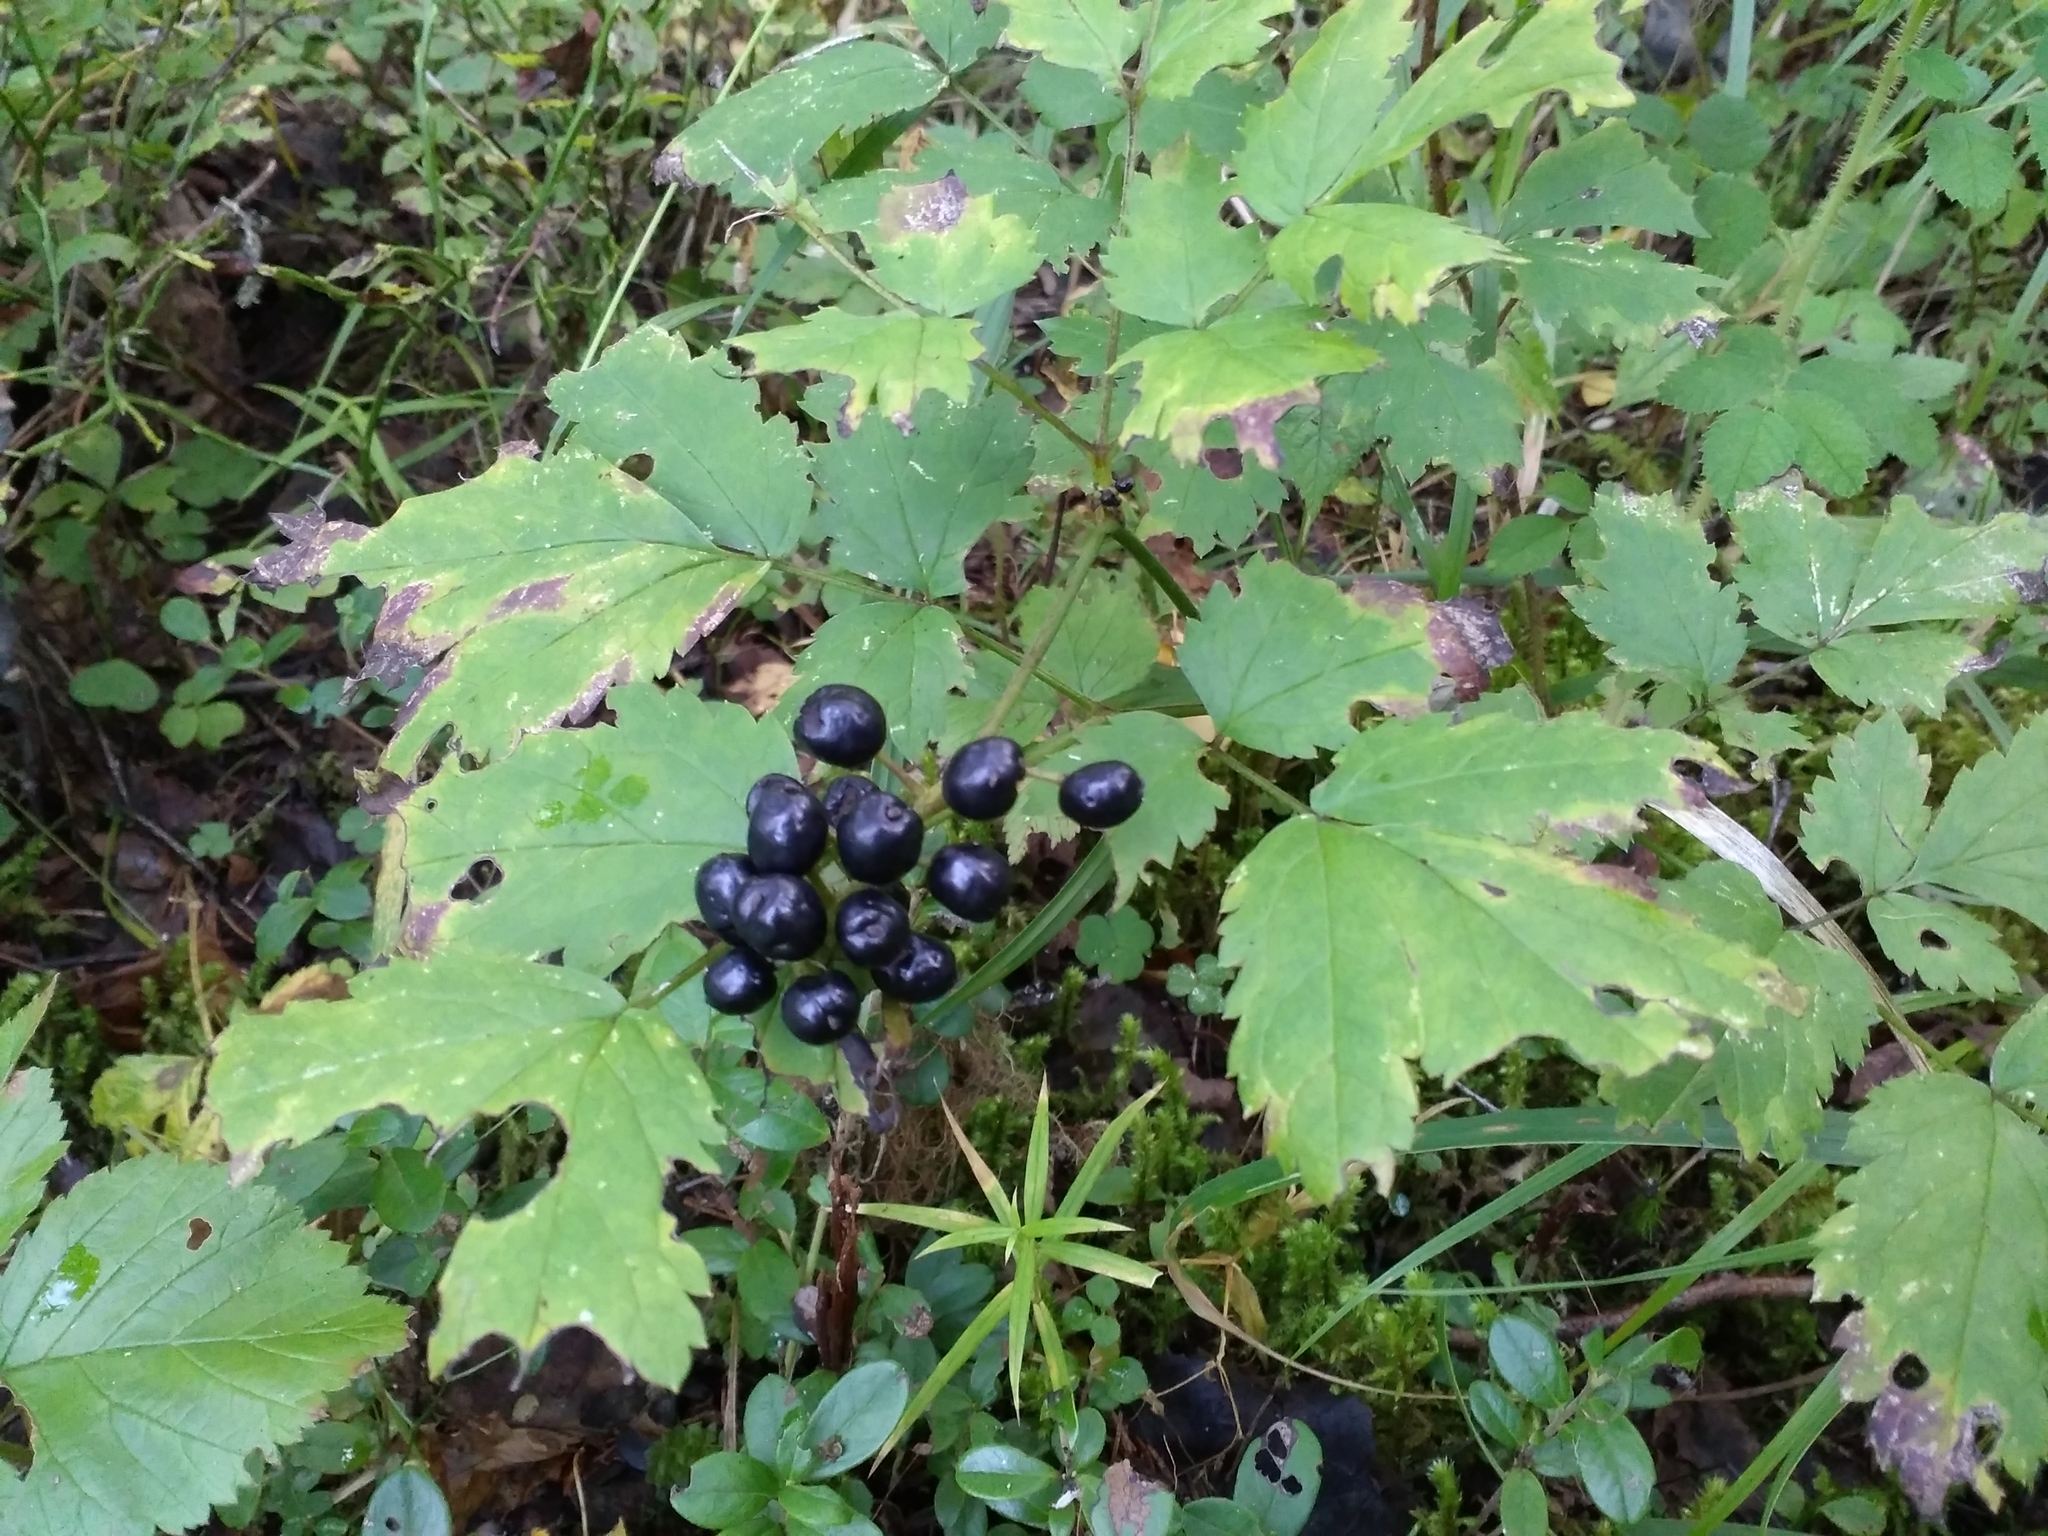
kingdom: Plantae
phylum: Tracheophyta
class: Magnoliopsida
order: Ranunculales
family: Ranunculaceae
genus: Actaea
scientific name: Actaea spicata
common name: Baneberry
